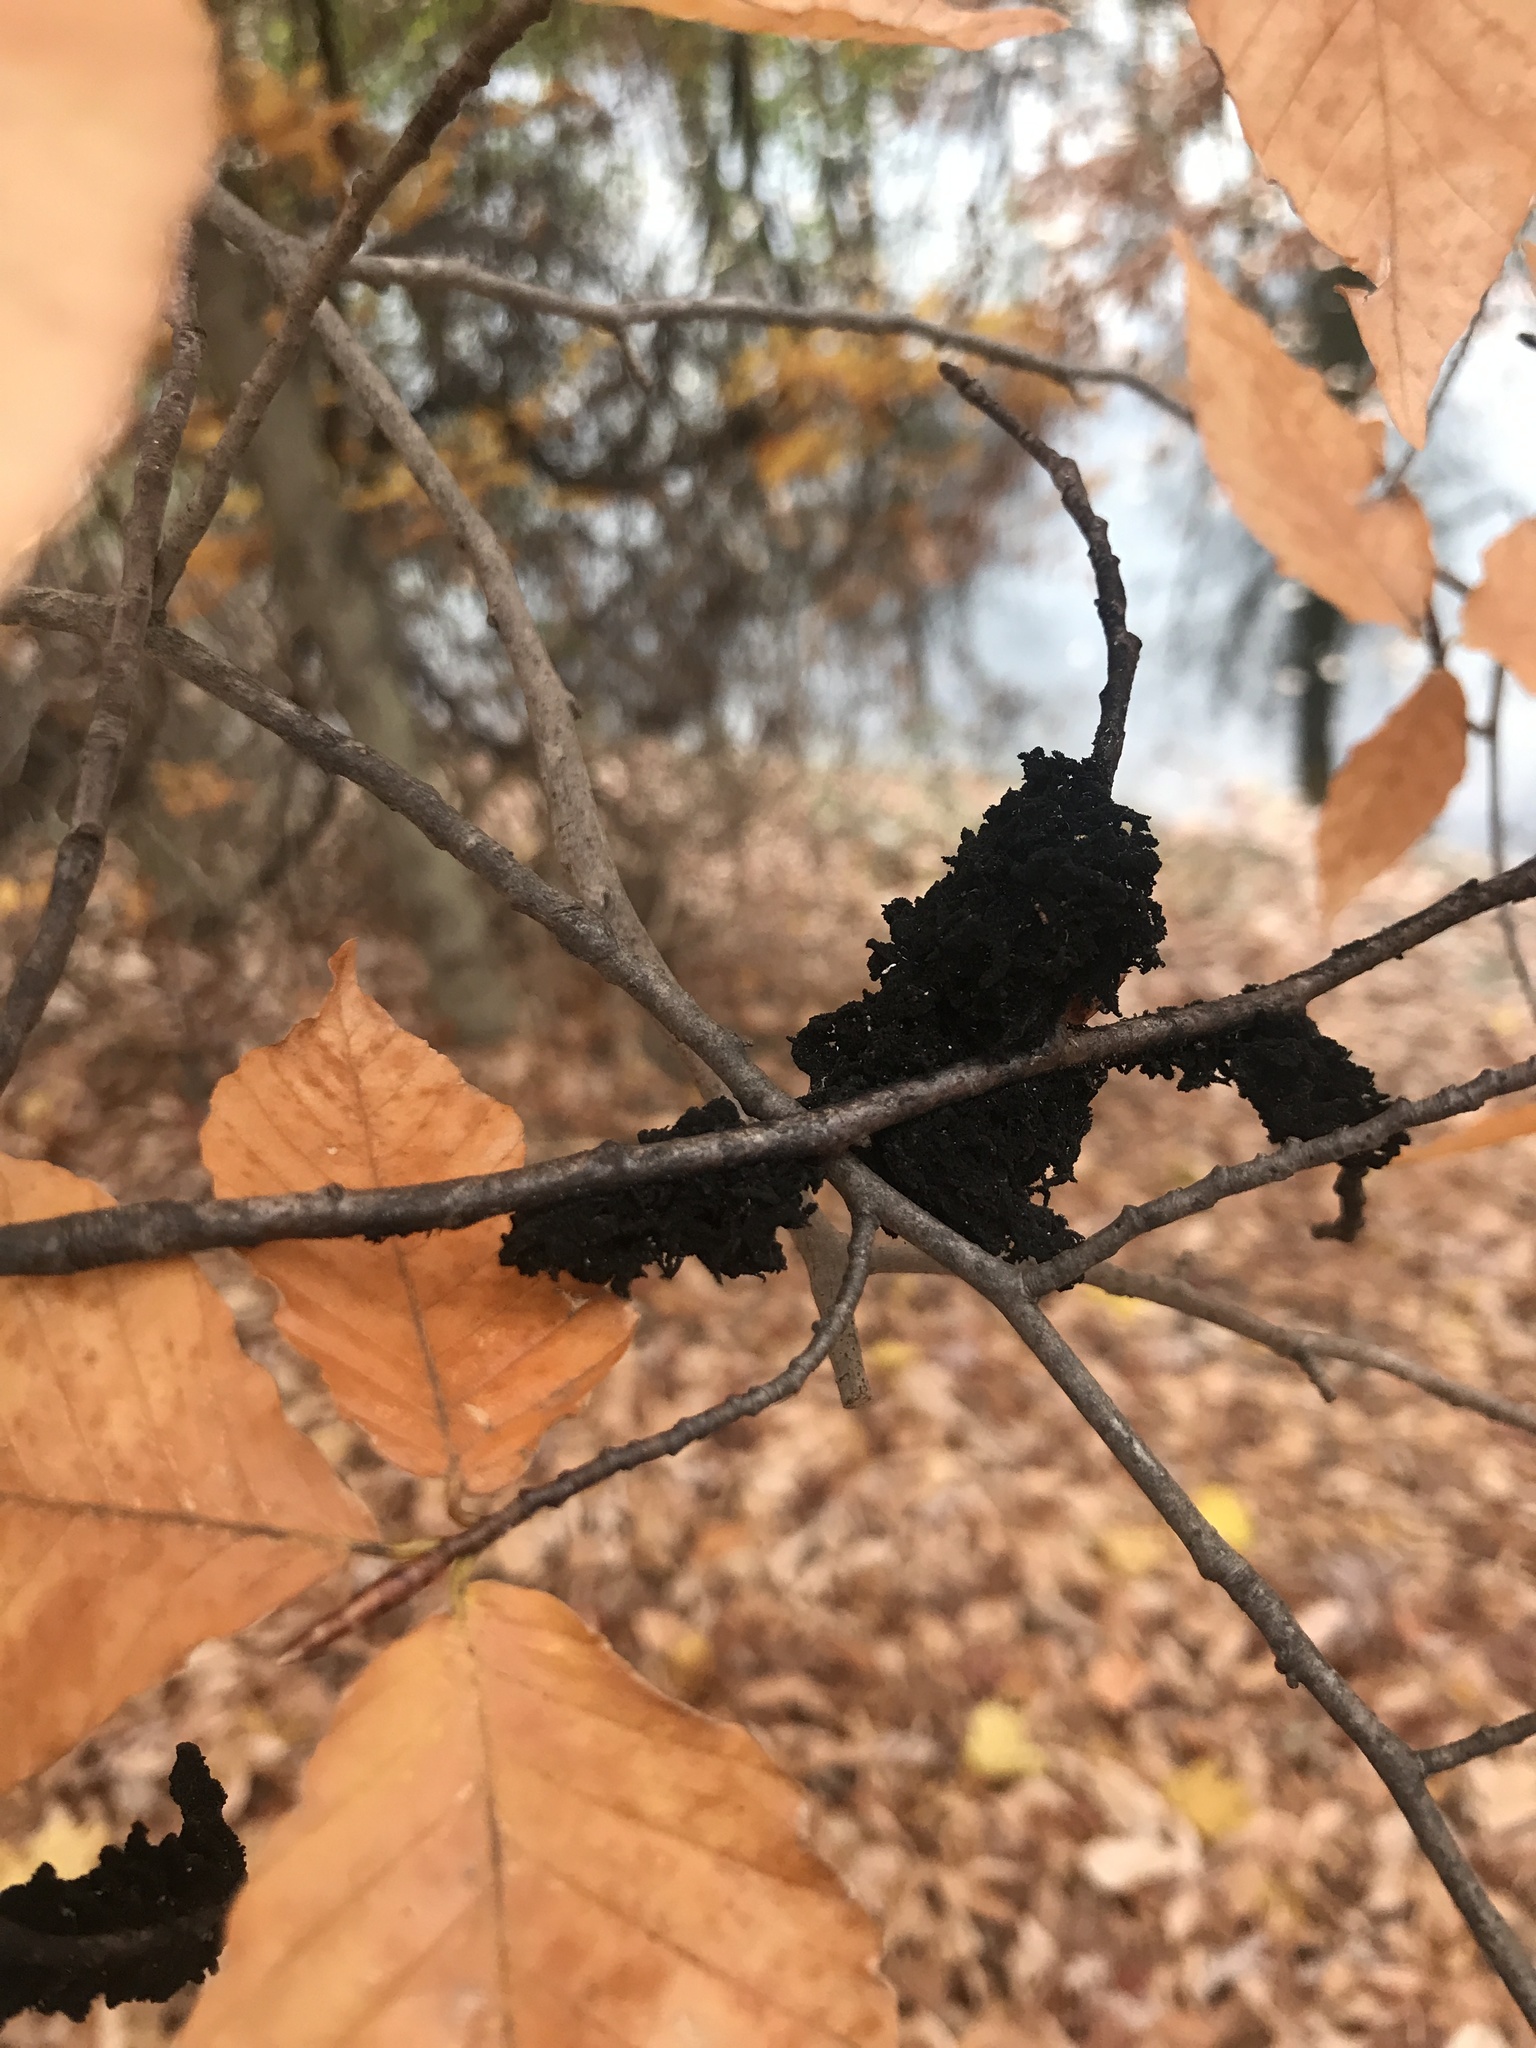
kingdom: Animalia
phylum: Arthropoda
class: Insecta
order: Hemiptera
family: Aphididae
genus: Grylloprociphilus
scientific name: Grylloprociphilus imbricator
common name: Beech blight aphid
